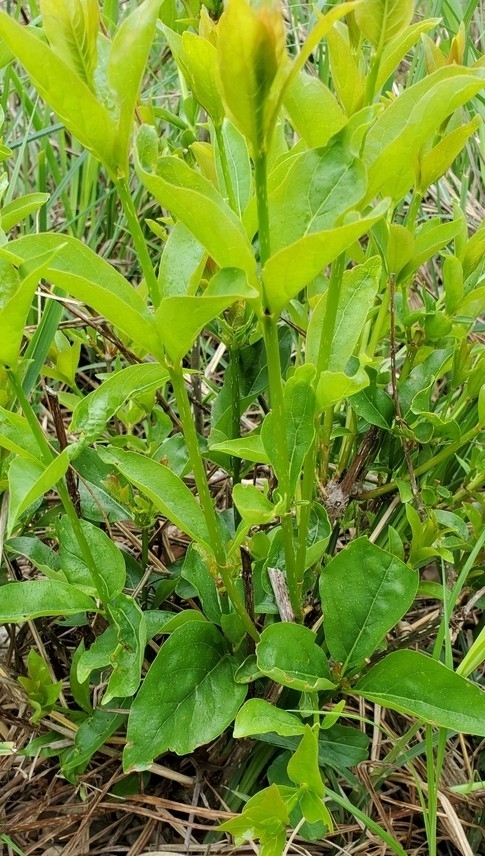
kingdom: Plantae
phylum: Tracheophyta
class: Magnoliopsida
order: Gentianales
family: Rubiaceae
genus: Cephalanthus
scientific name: Cephalanthus occidentalis
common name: Button-willow
